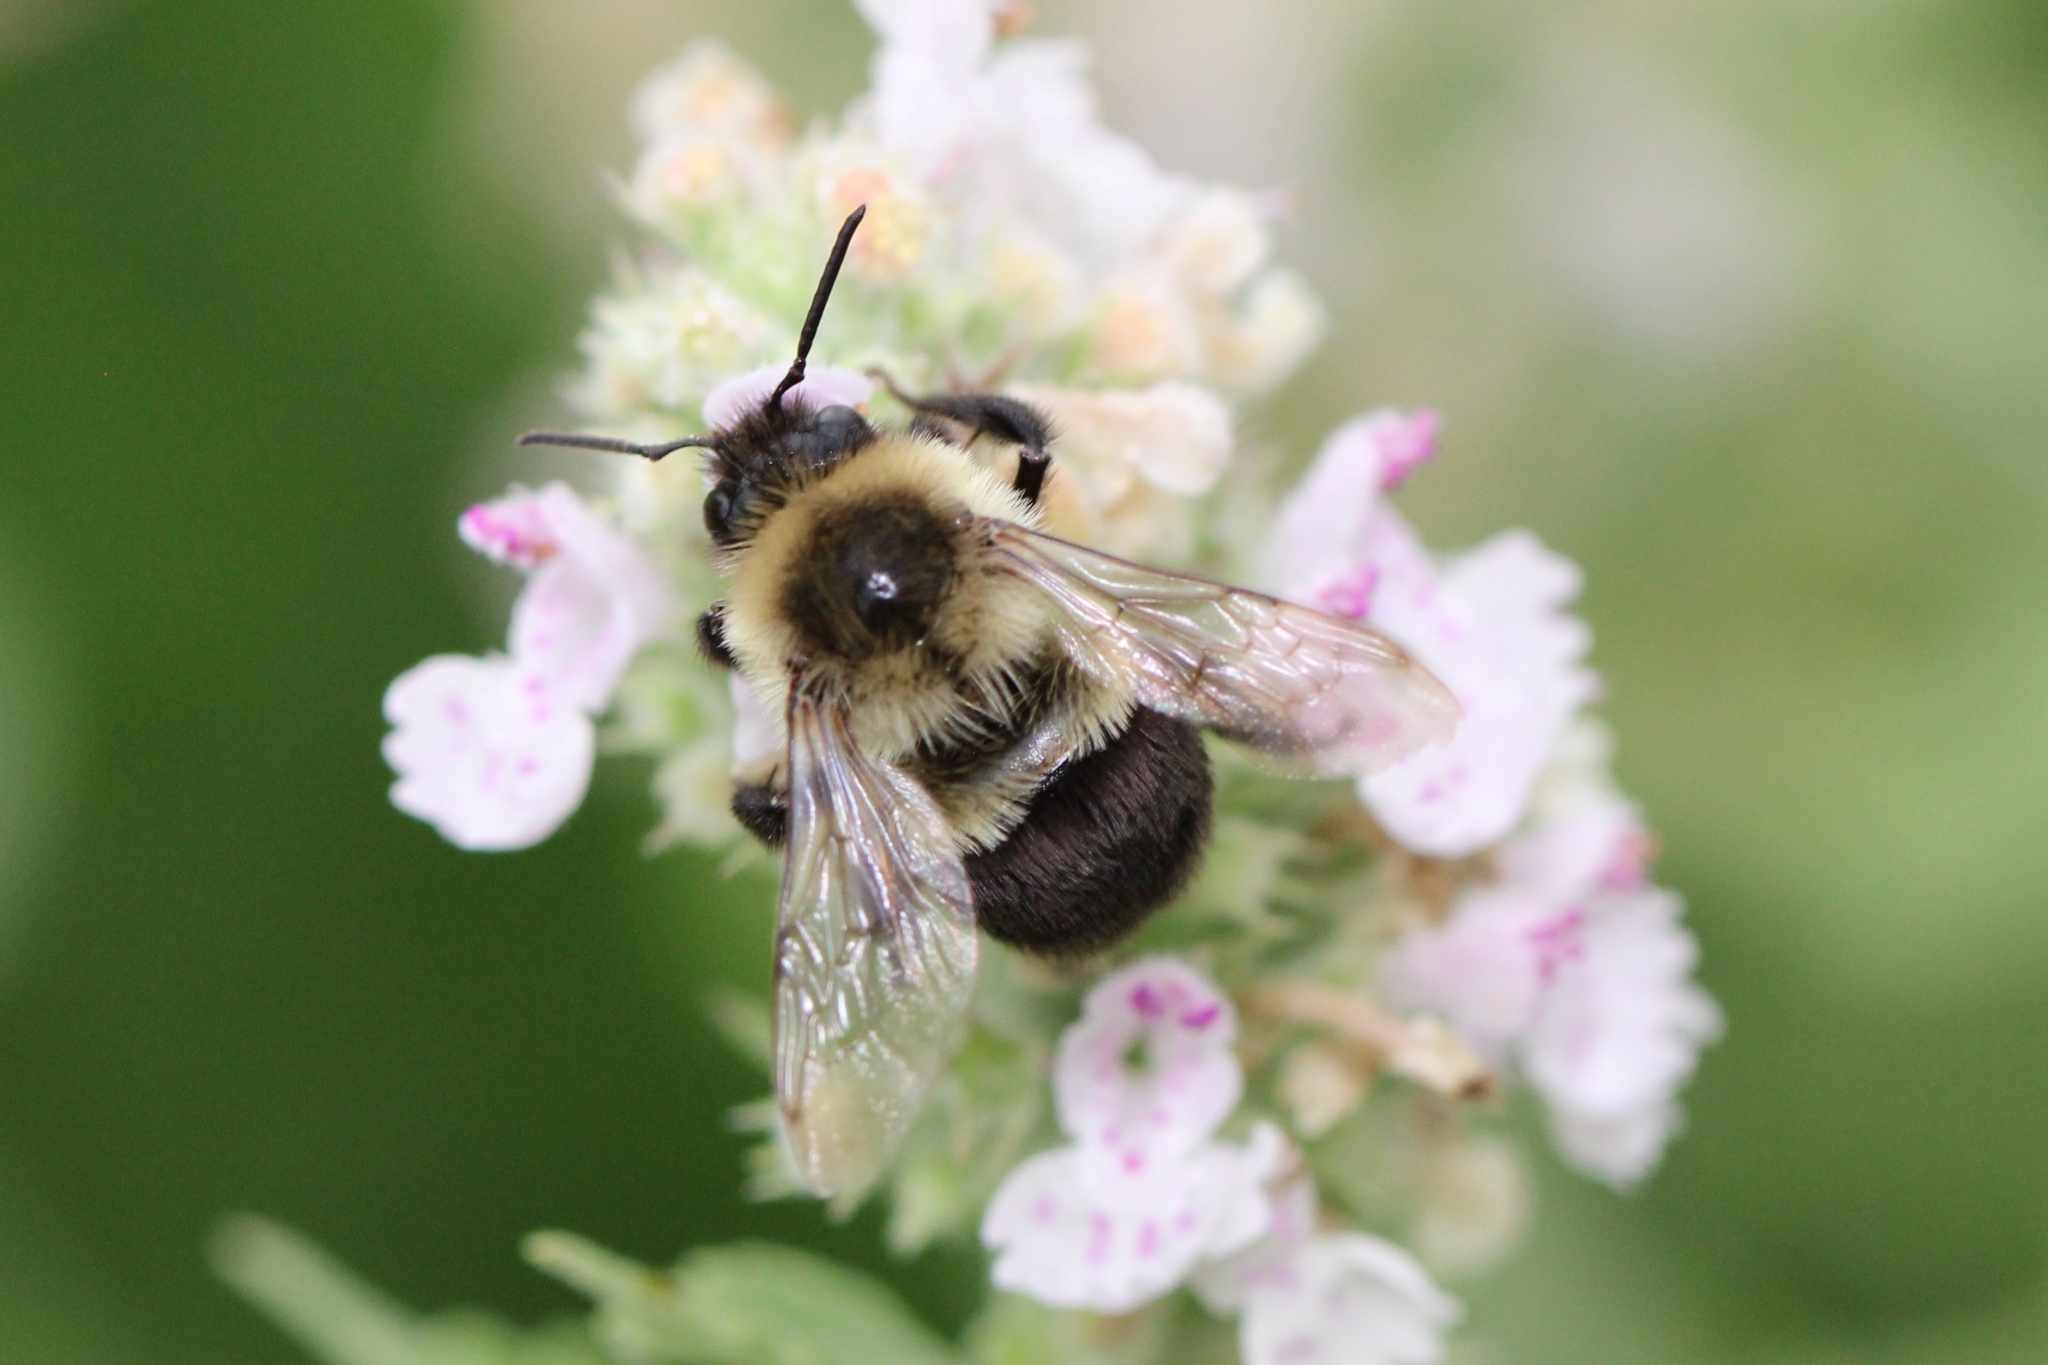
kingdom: Animalia
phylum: Arthropoda
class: Insecta
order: Hymenoptera
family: Apidae
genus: Bombus
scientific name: Bombus impatiens
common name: Common eastern bumble bee
